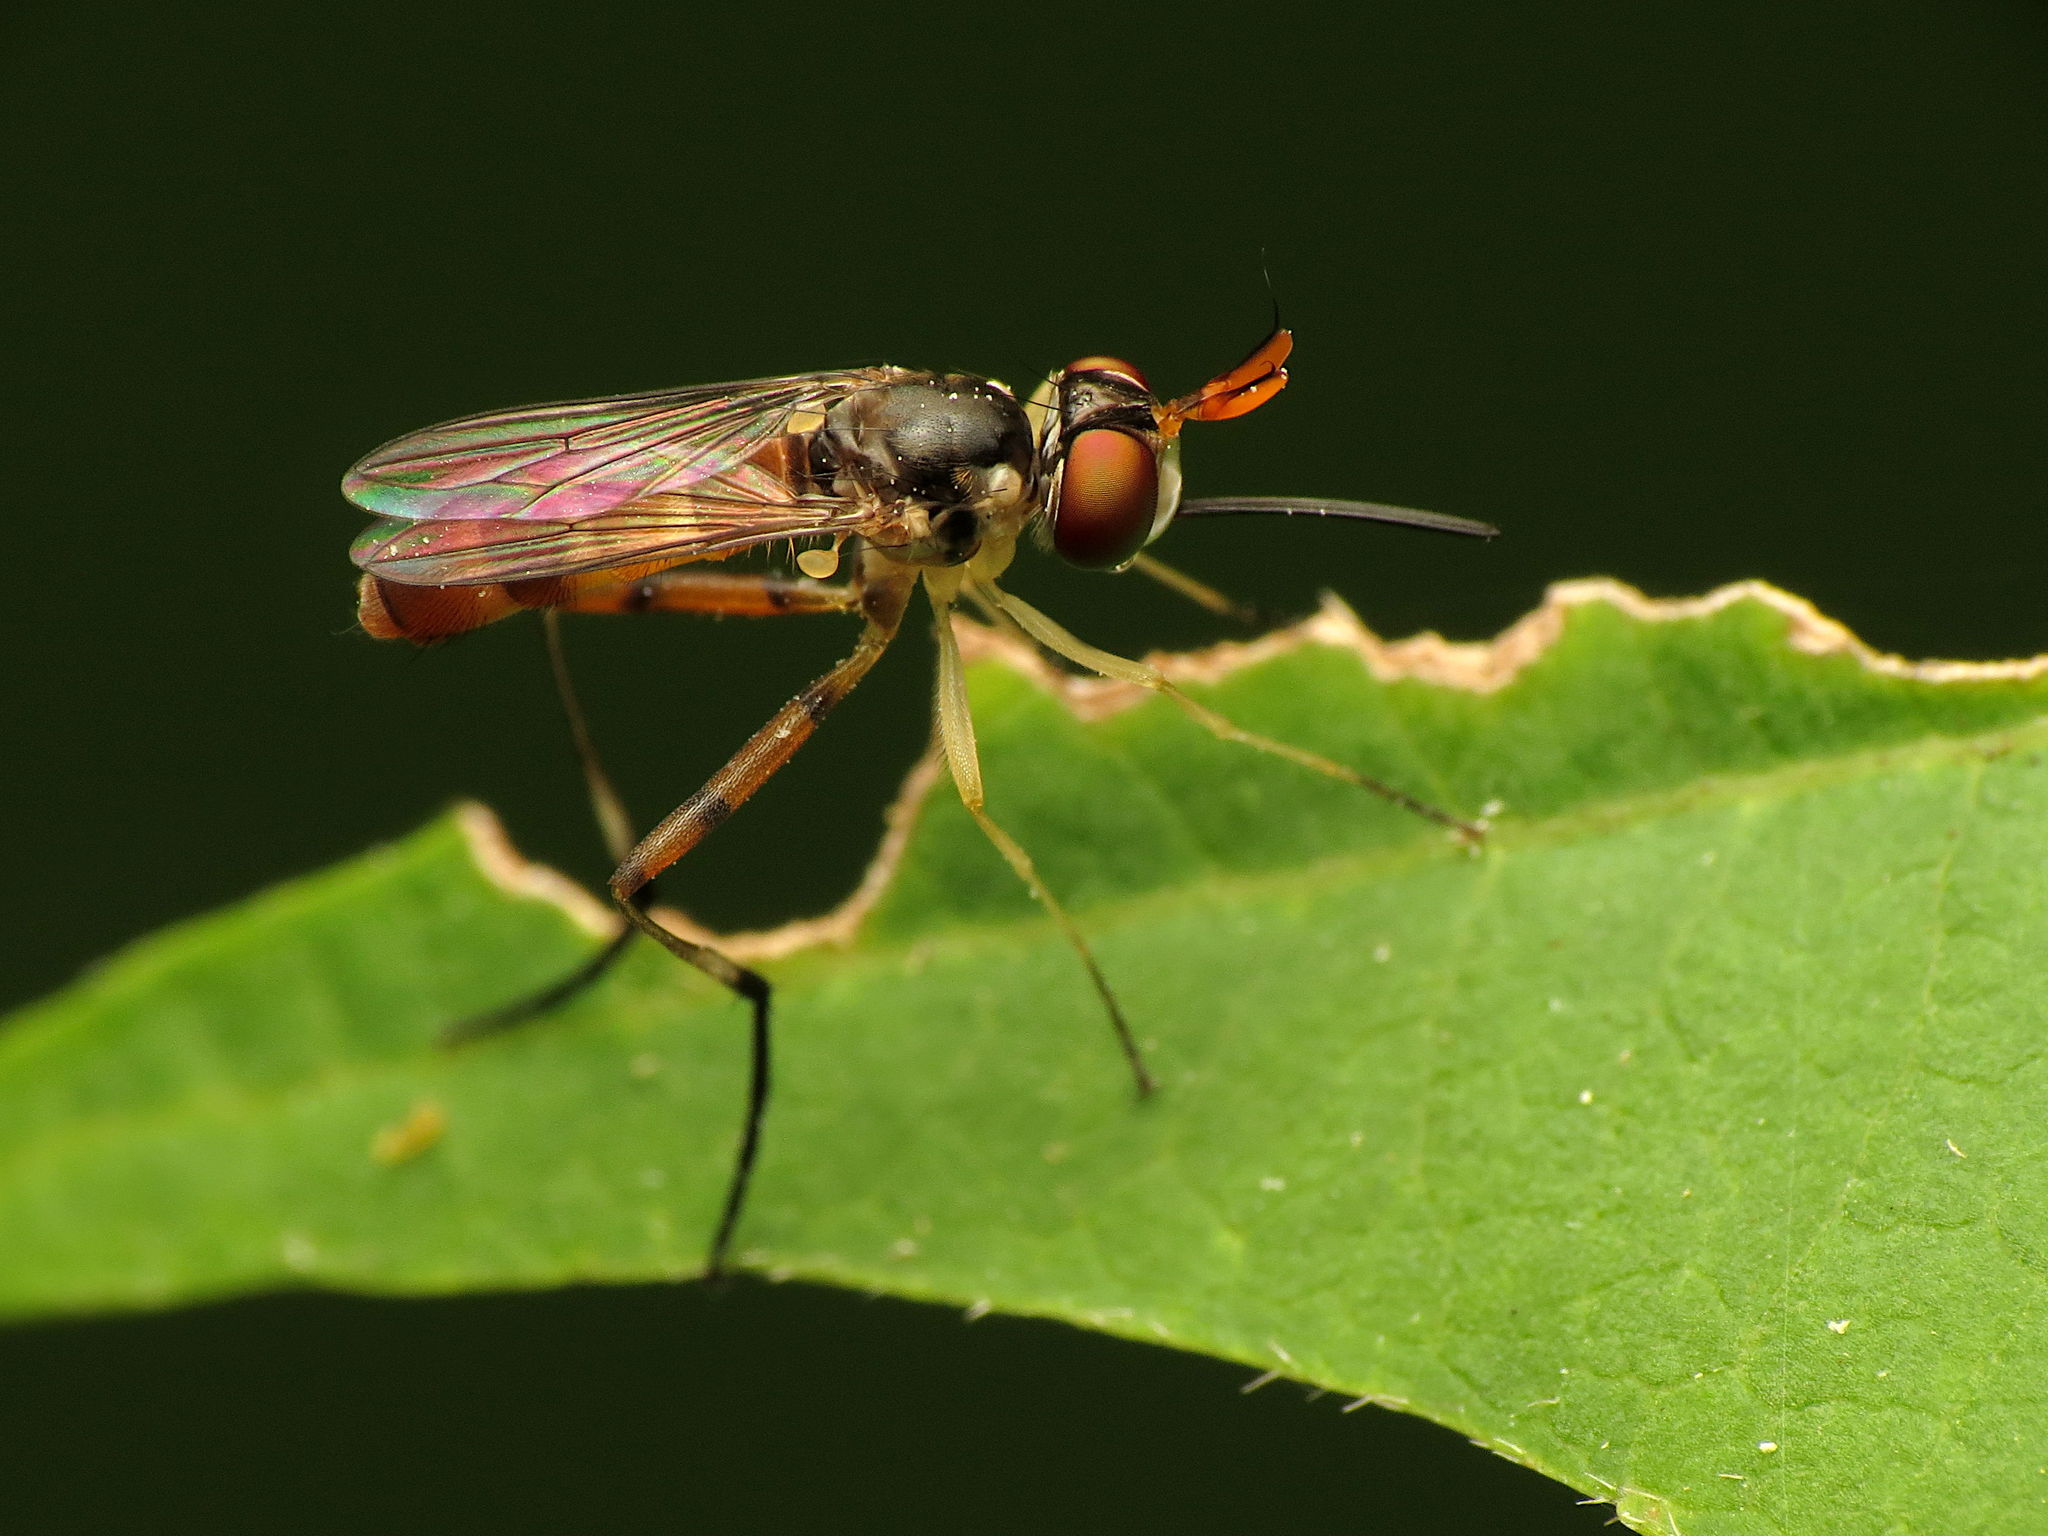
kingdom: Animalia
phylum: Arthropoda
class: Insecta
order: Diptera
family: Conopidae
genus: Stylogaster
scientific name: Stylogaster neglecta
